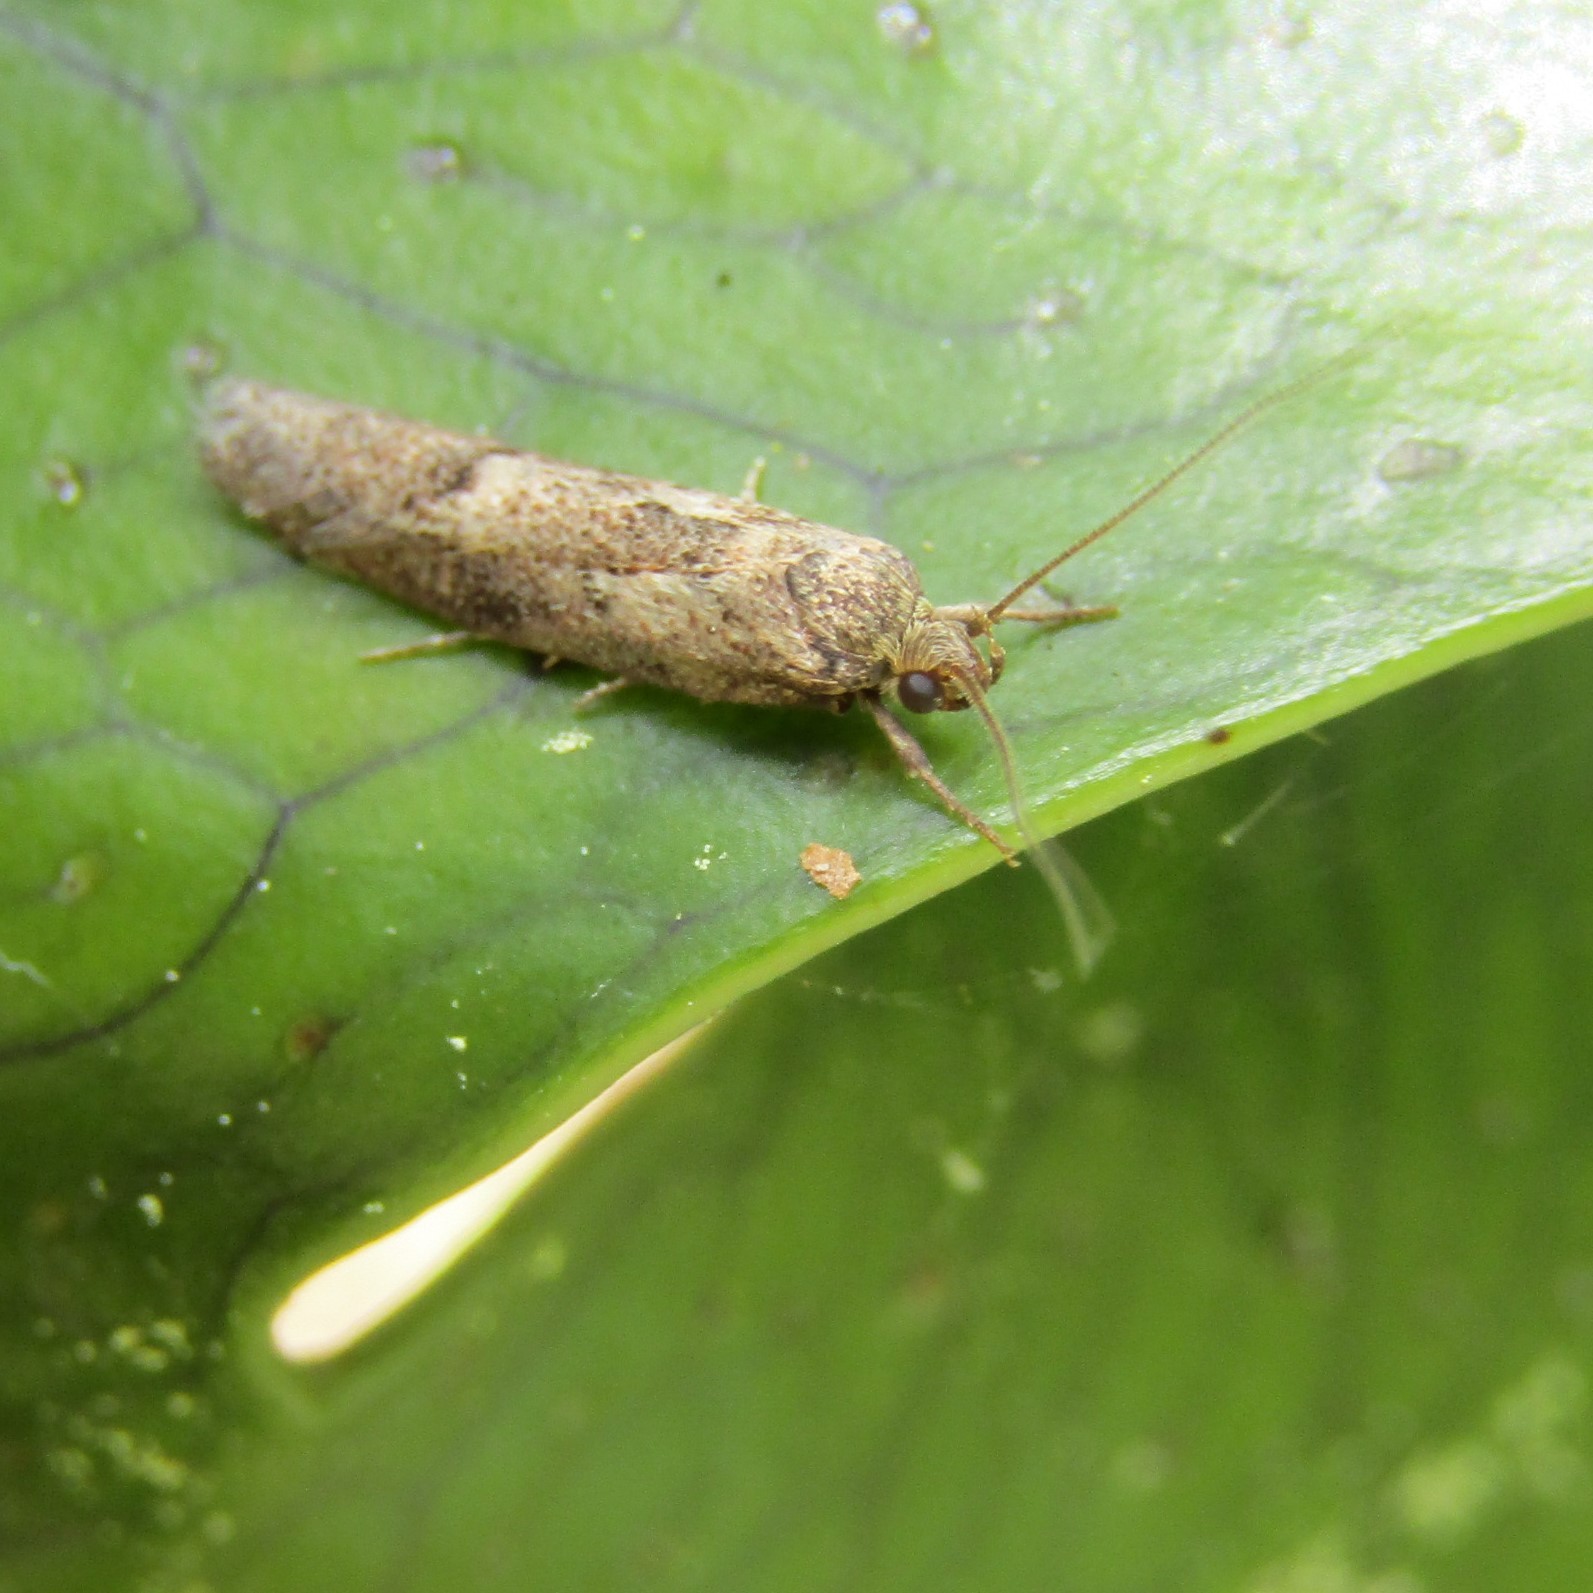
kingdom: Animalia
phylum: Arthropoda
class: Insecta
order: Lepidoptera
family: Oecophoridae
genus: Chersadaula
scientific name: Chersadaula ochrogastra
